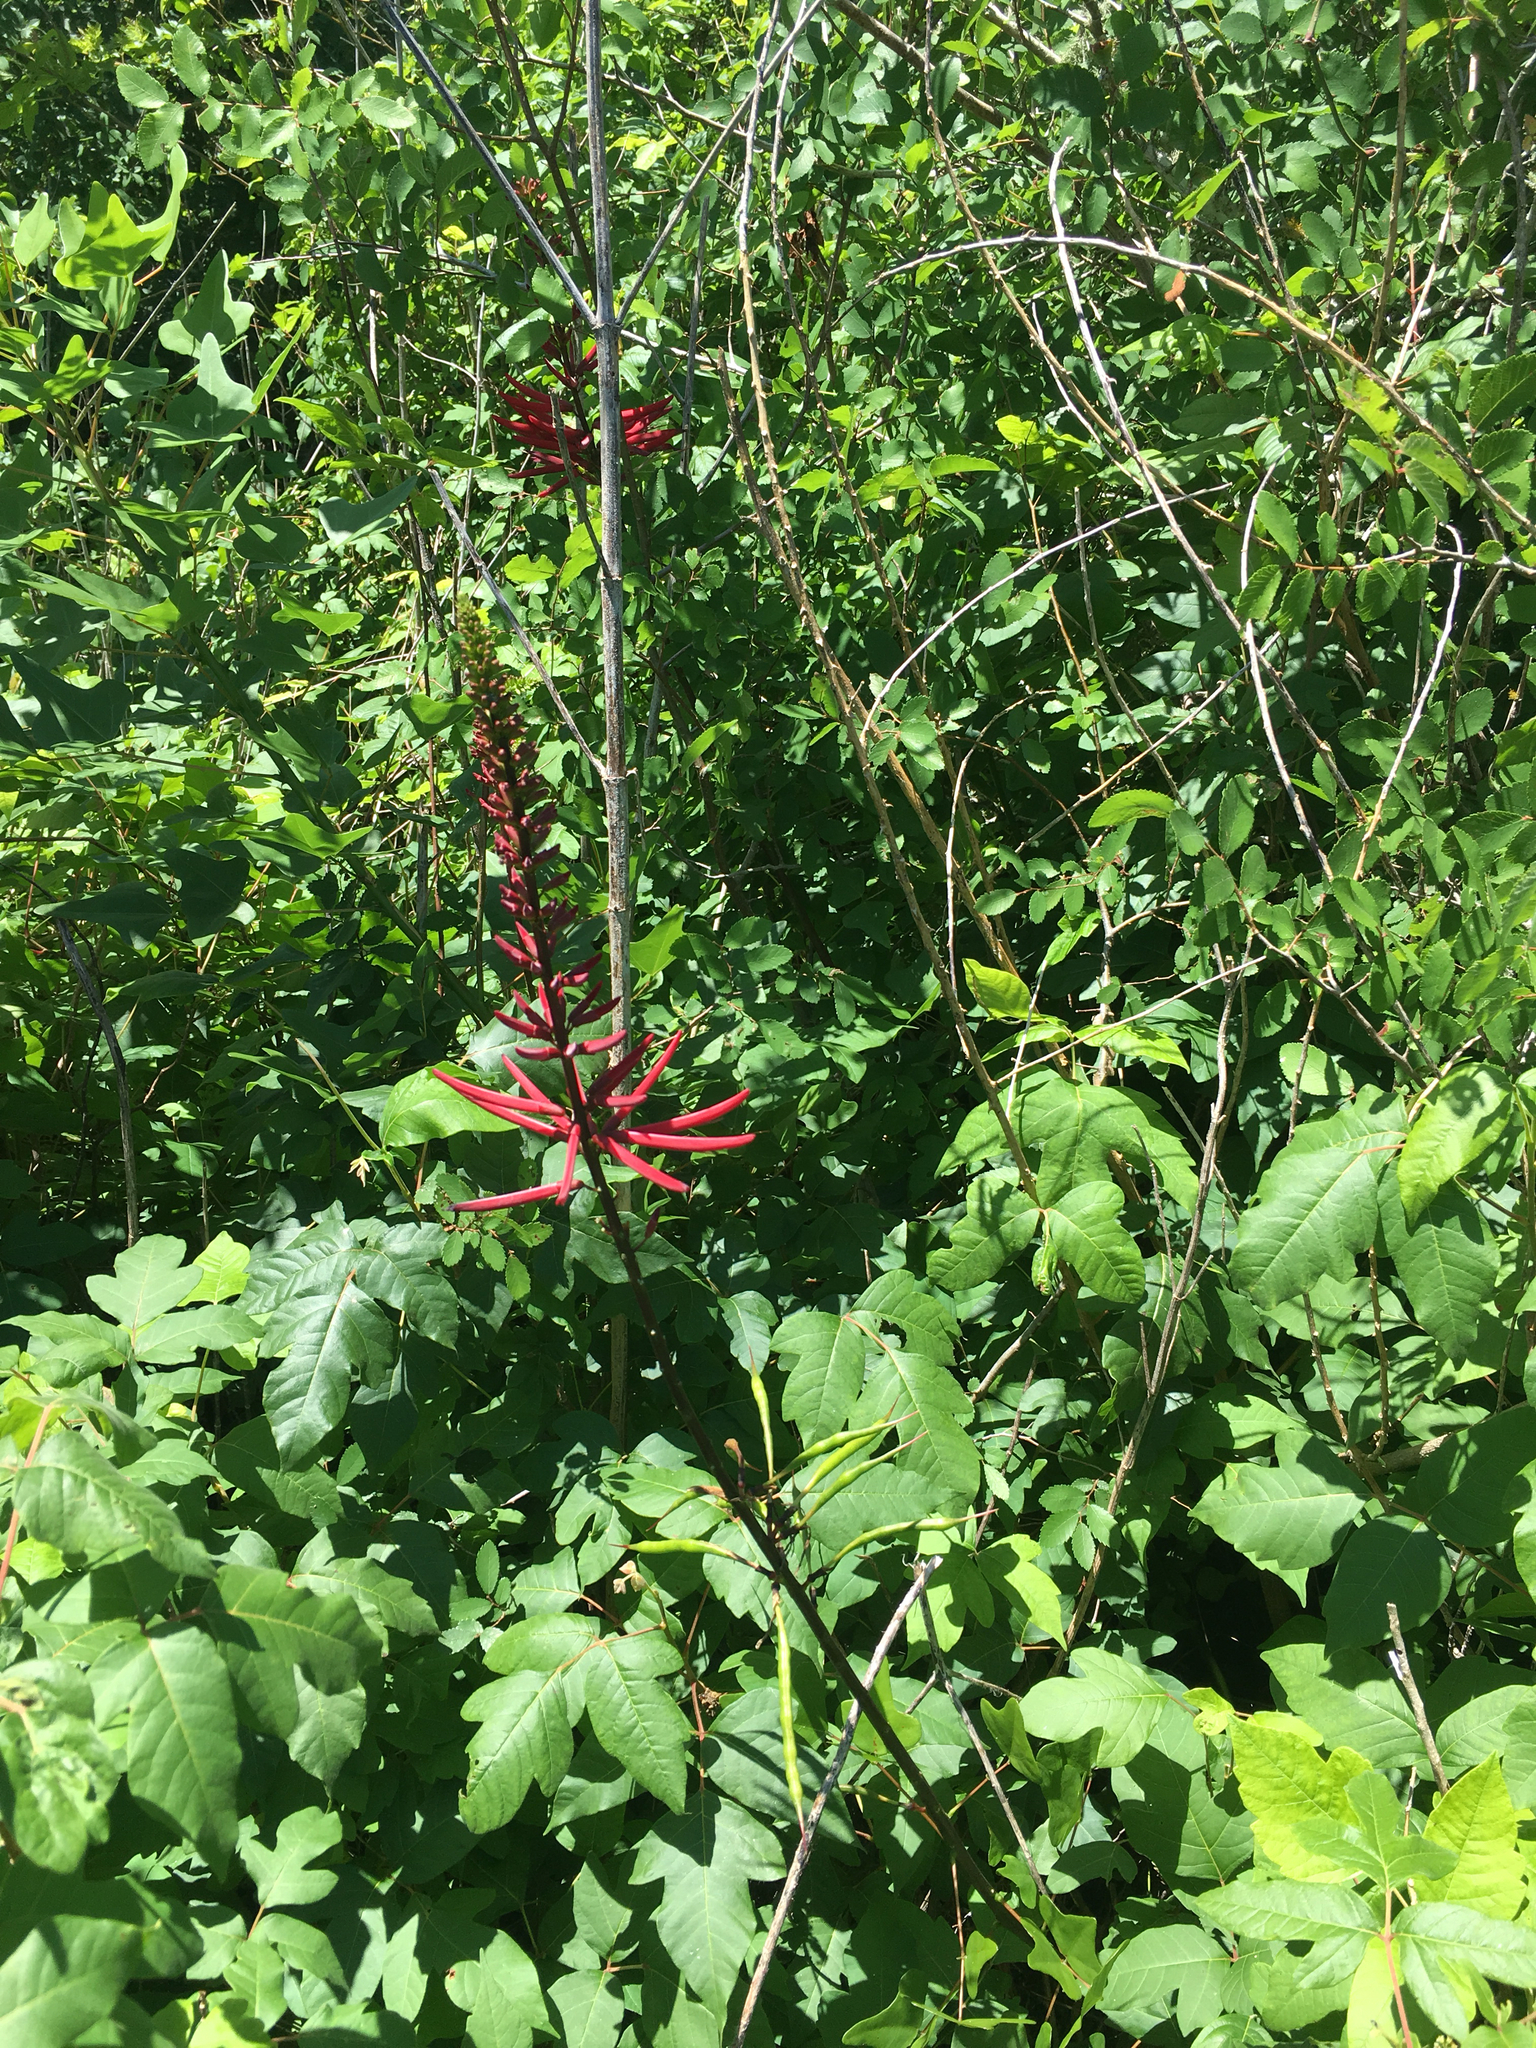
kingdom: Plantae
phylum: Tracheophyta
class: Magnoliopsida
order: Fabales
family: Fabaceae
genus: Erythrina
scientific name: Erythrina herbacea
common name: Coral-bean
